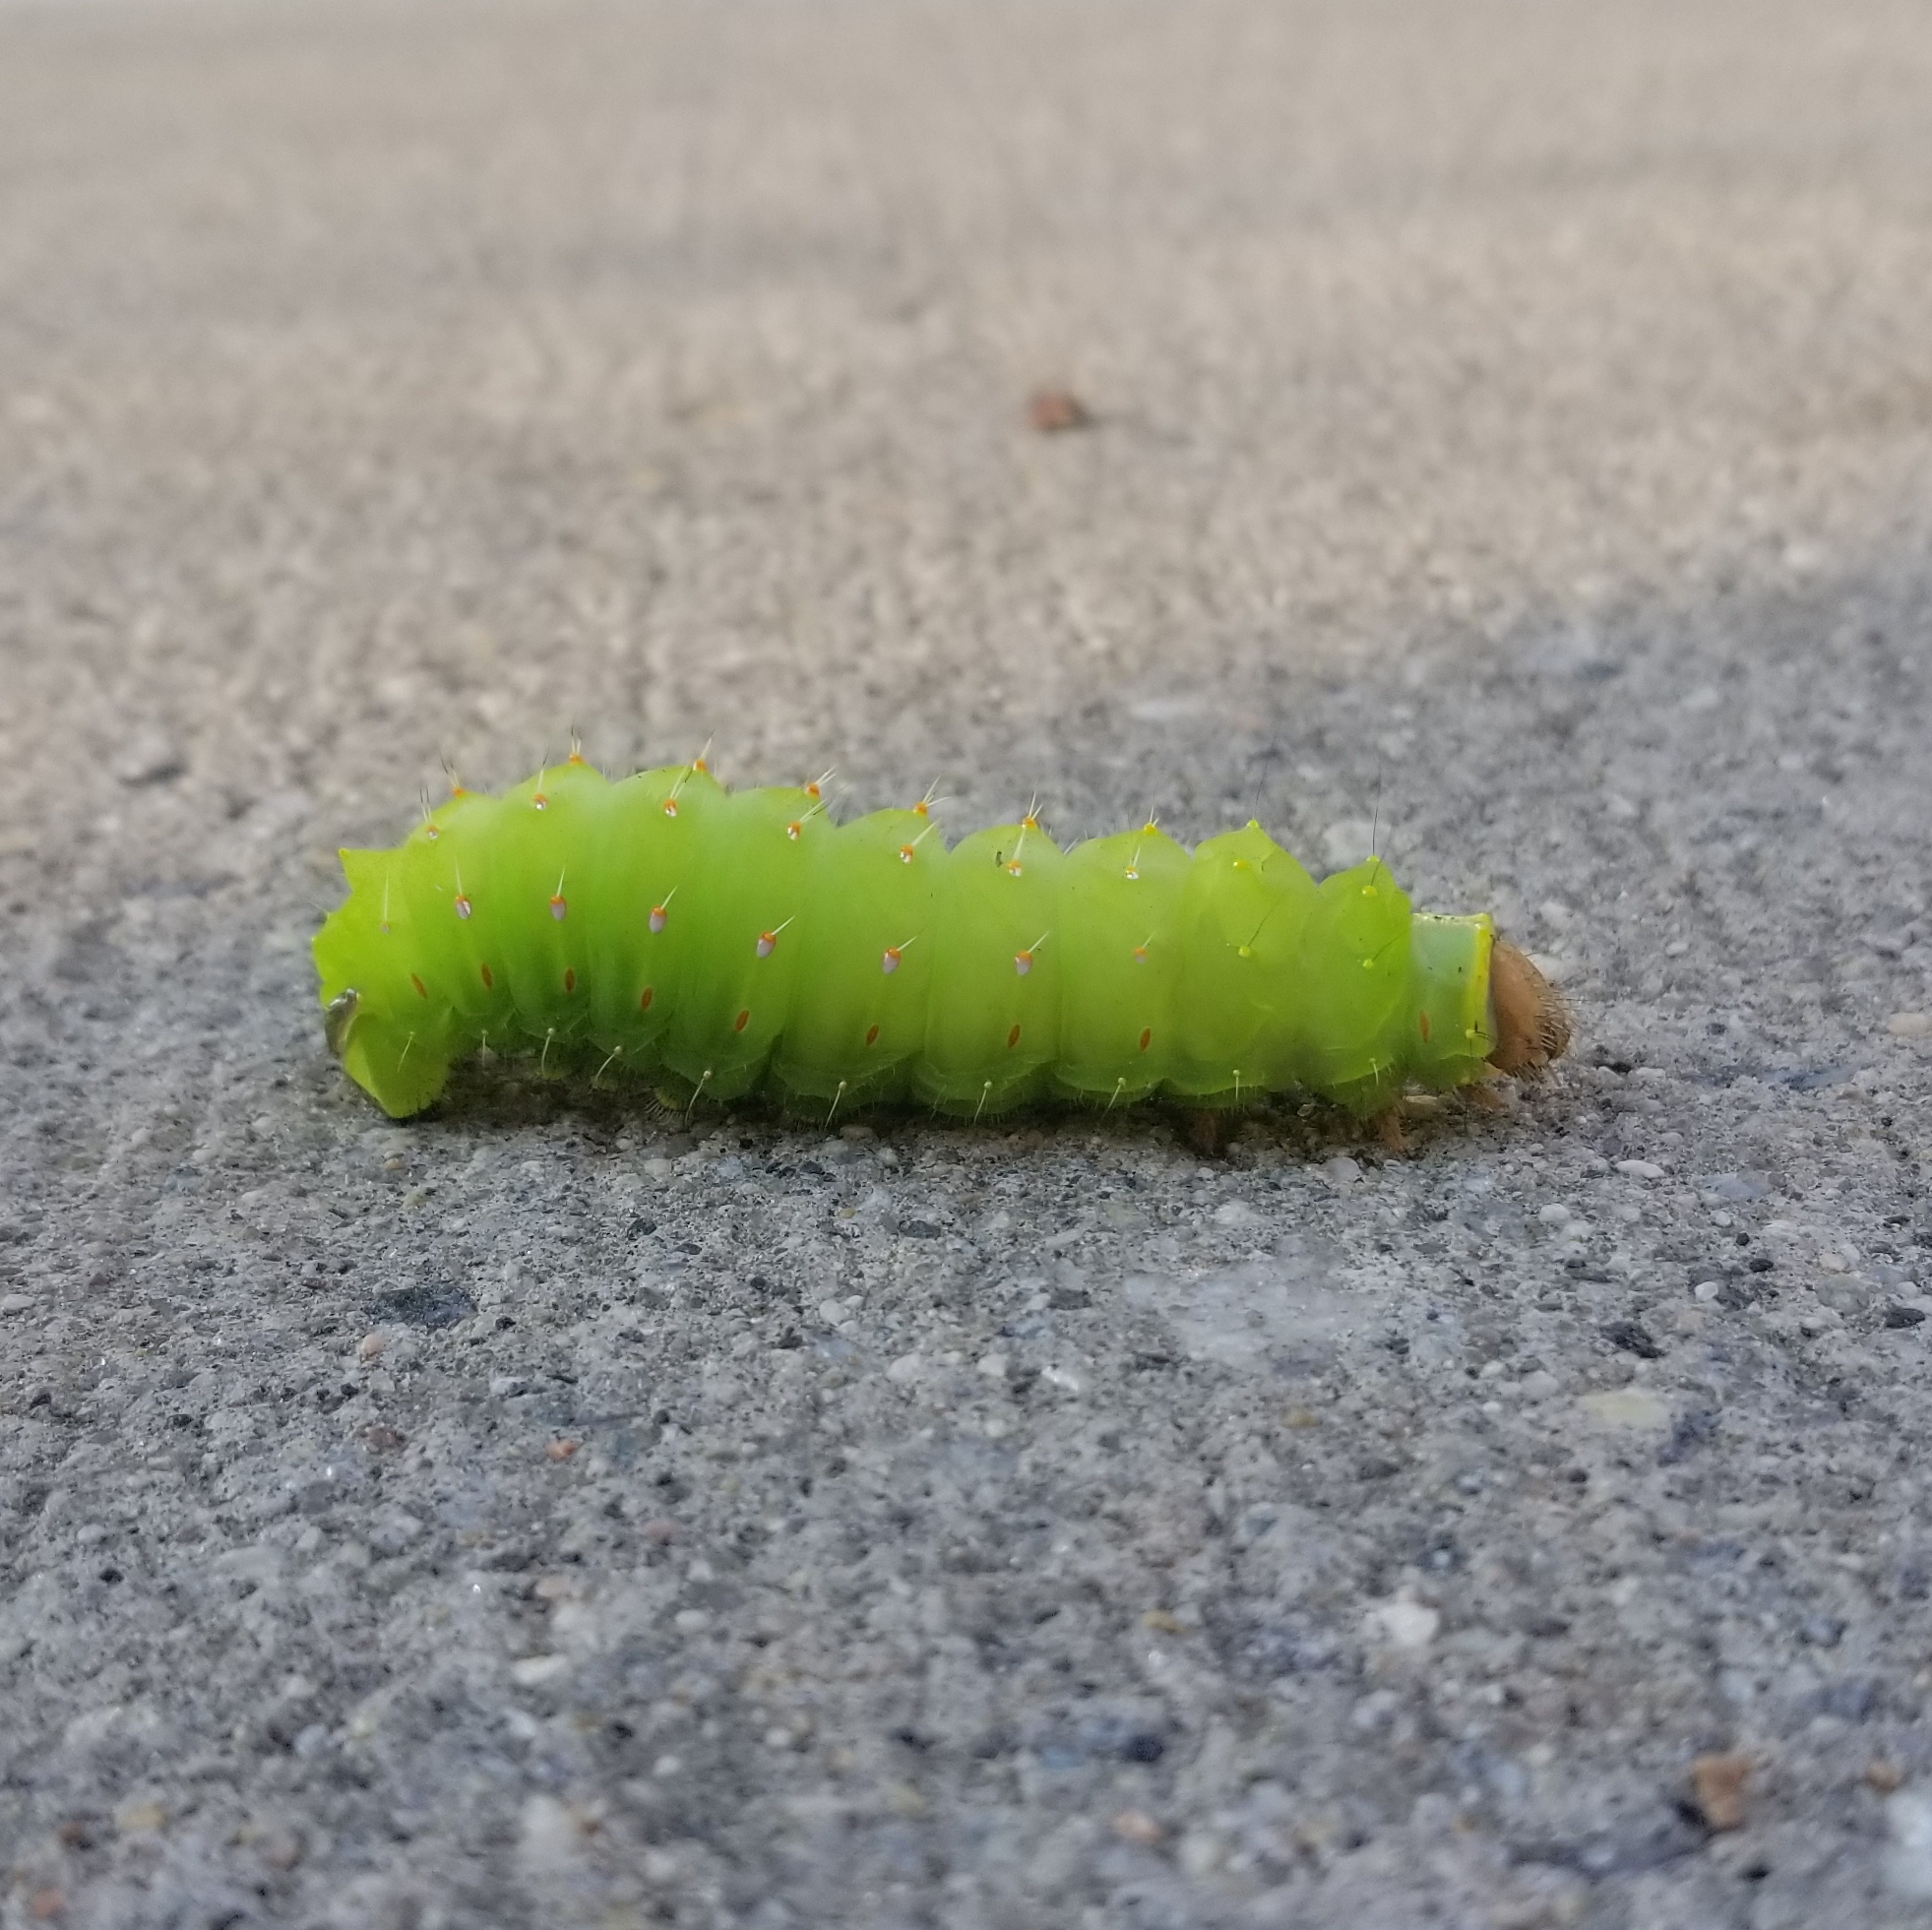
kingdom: Animalia
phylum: Arthropoda
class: Insecta
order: Lepidoptera
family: Saturniidae
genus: Antheraea
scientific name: Antheraea polyphemus
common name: Polyphemus moth
